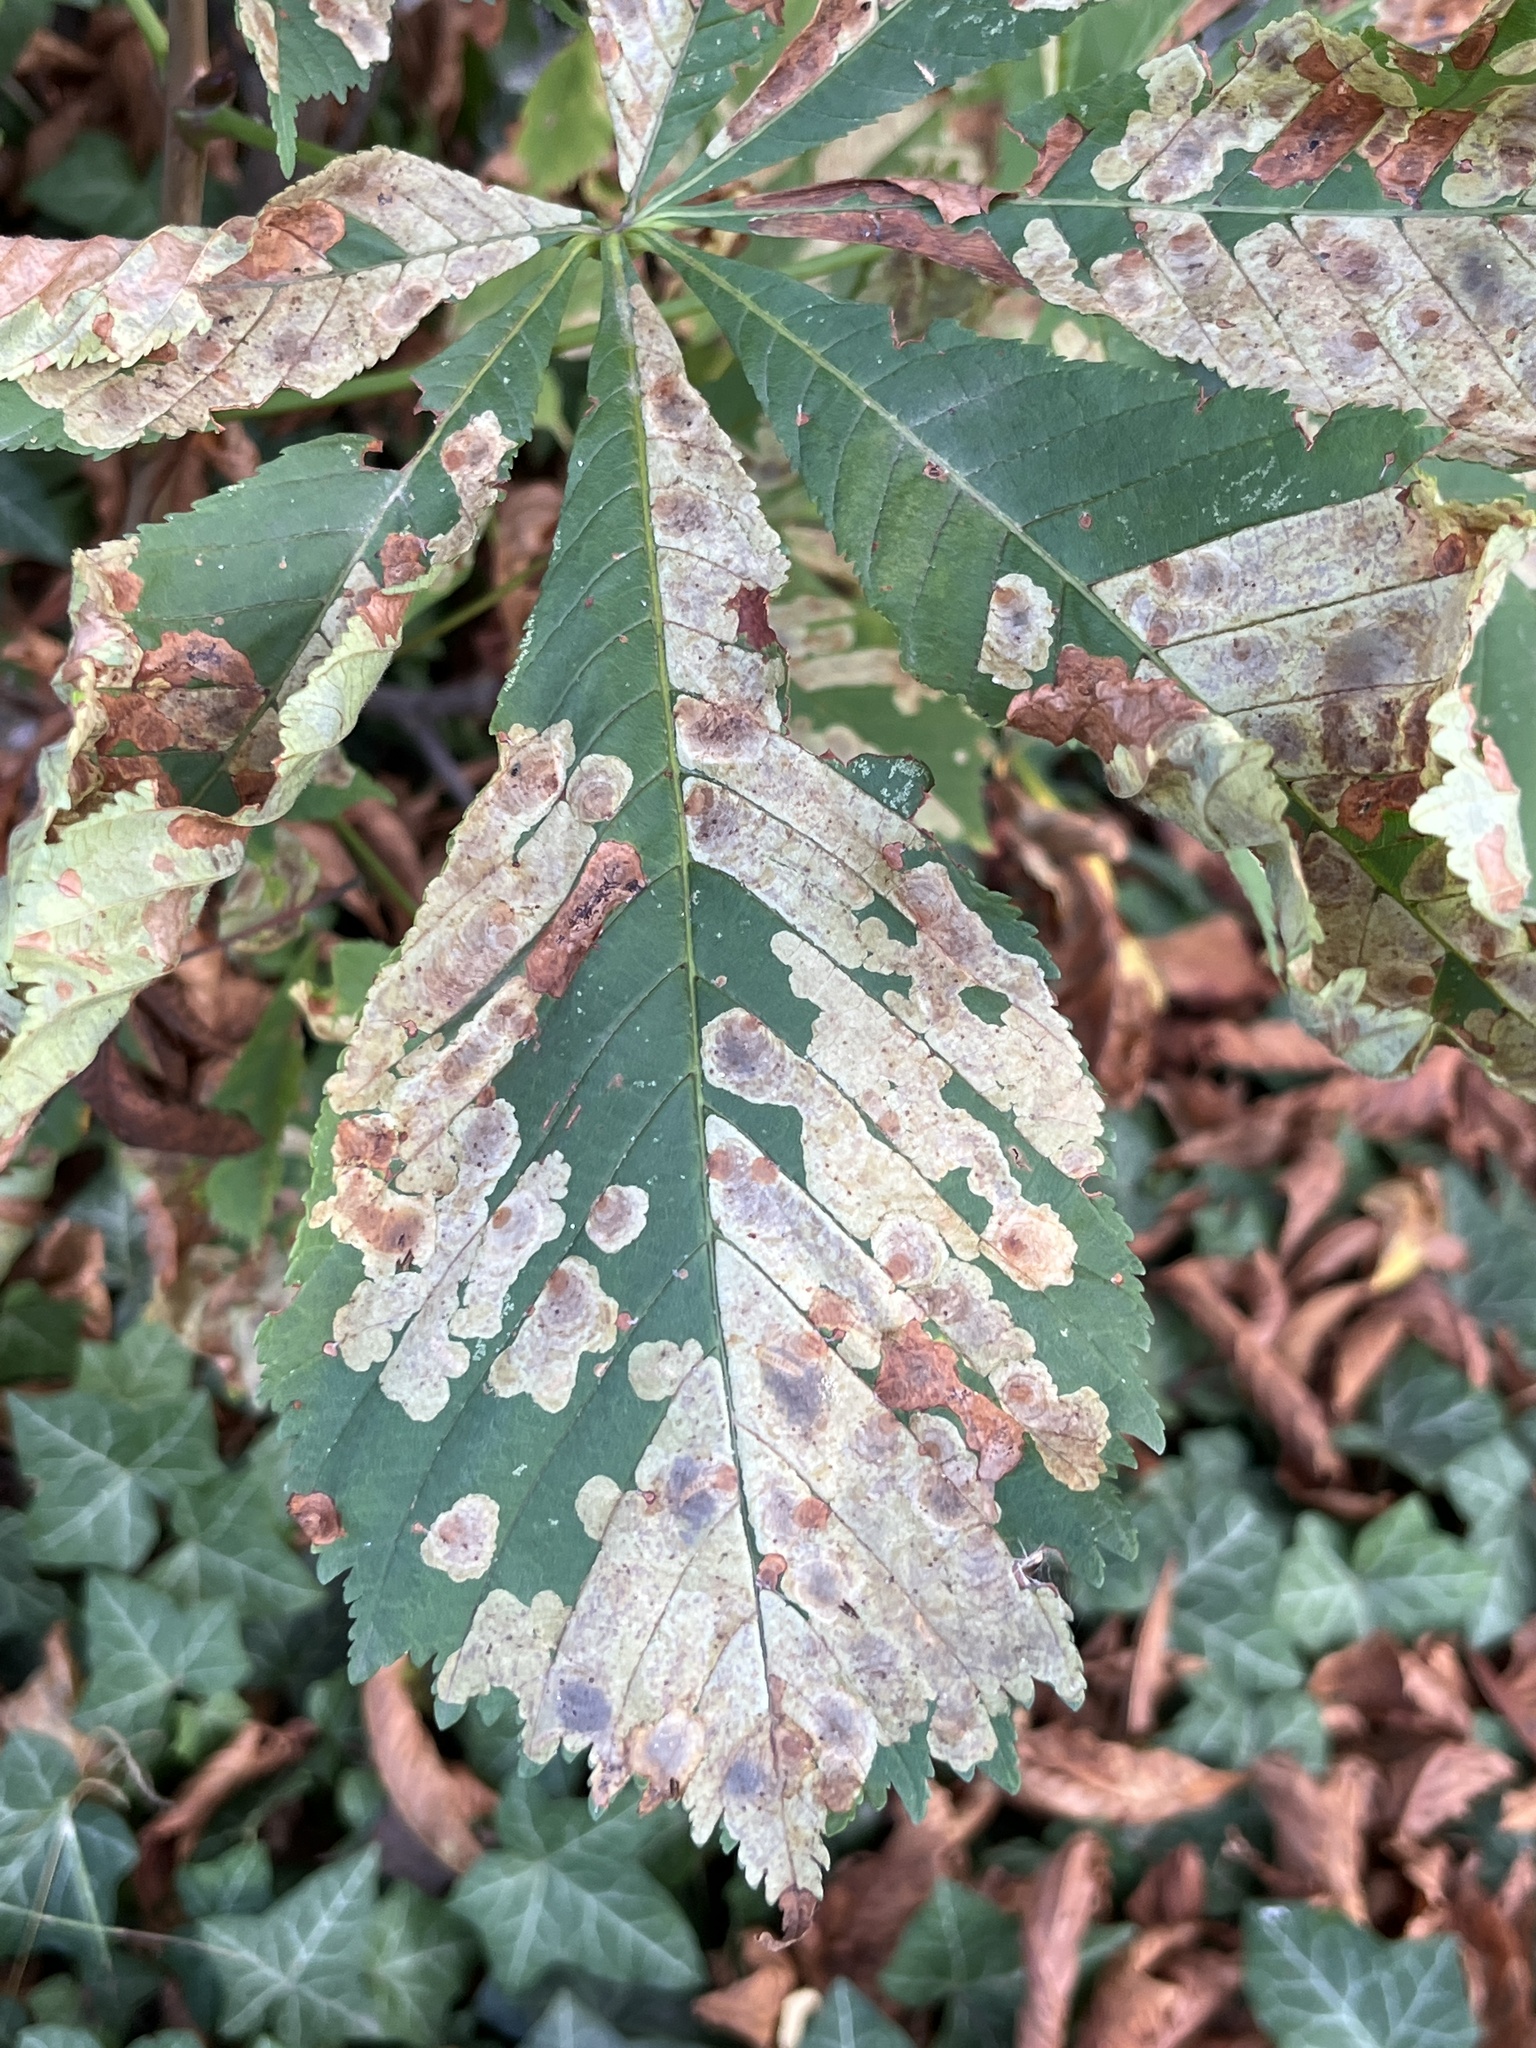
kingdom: Animalia
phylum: Arthropoda
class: Insecta
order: Lepidoptera
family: Gracillariidae
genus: Cameraria
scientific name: Cameraria ohridella
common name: Horse-chestnut leaf-miner
